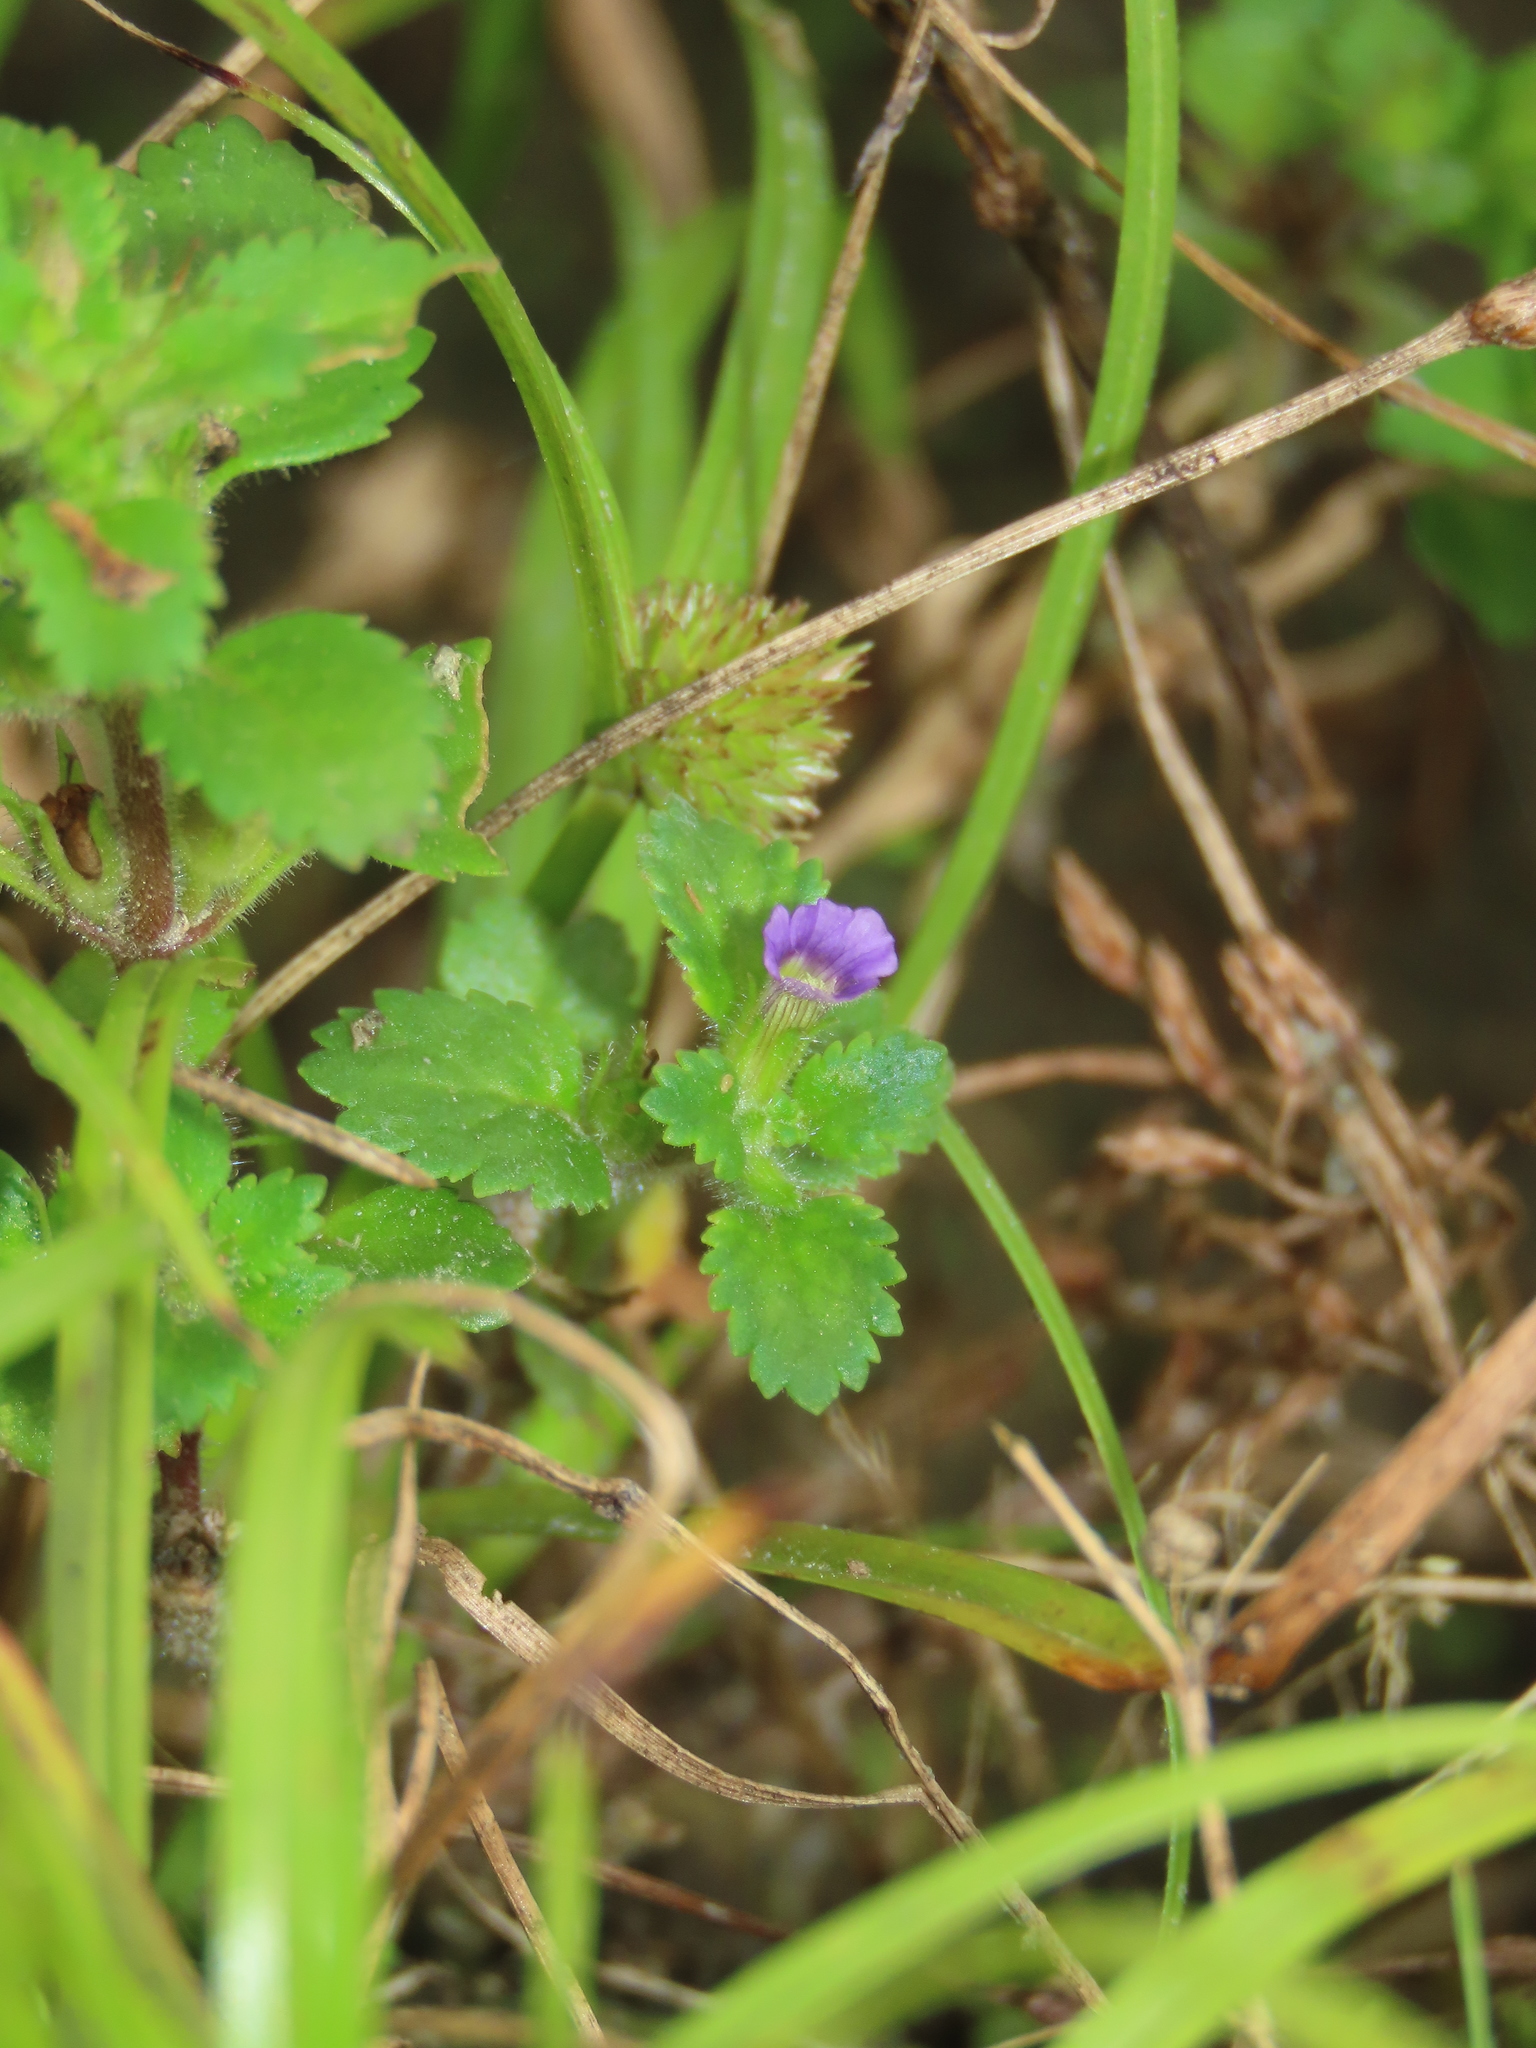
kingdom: Plantae
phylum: Tracheophyta
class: Magnoliopsida
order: Lamiales
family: Plantaginaceae
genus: Stemodia
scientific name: Stemodia verticillata
